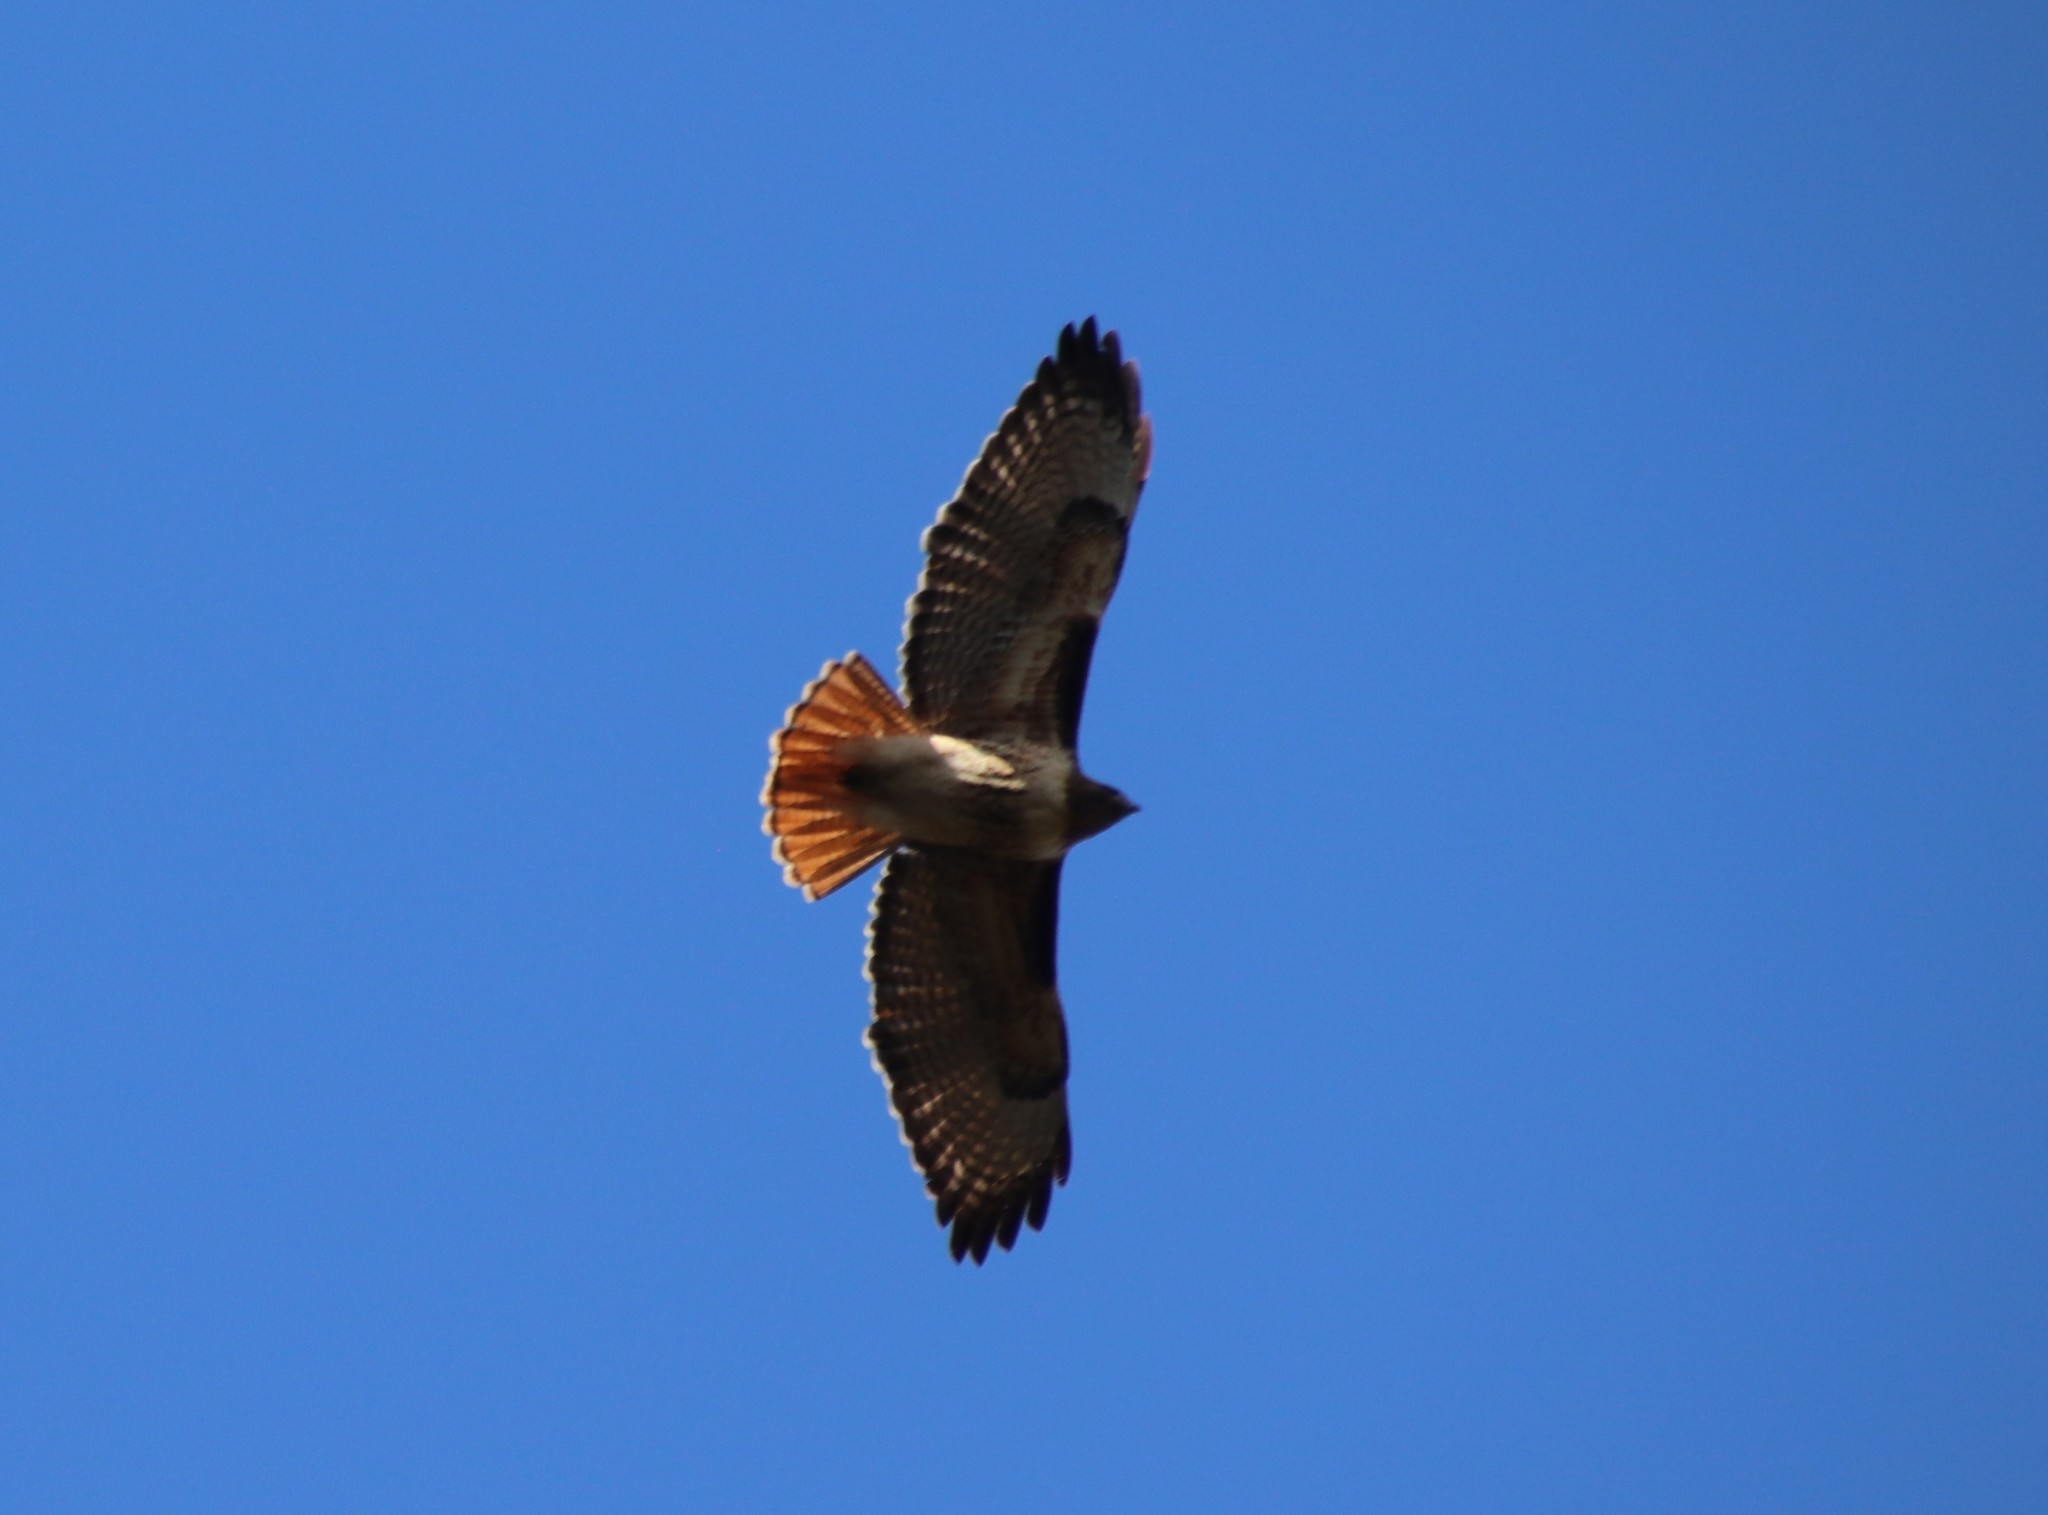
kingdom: Animalia
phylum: Chordata
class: Aves
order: Accipitriformes
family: Accipitridae
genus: Buteo
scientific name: Buteo jamaicensis
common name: Red-tailed hawk
